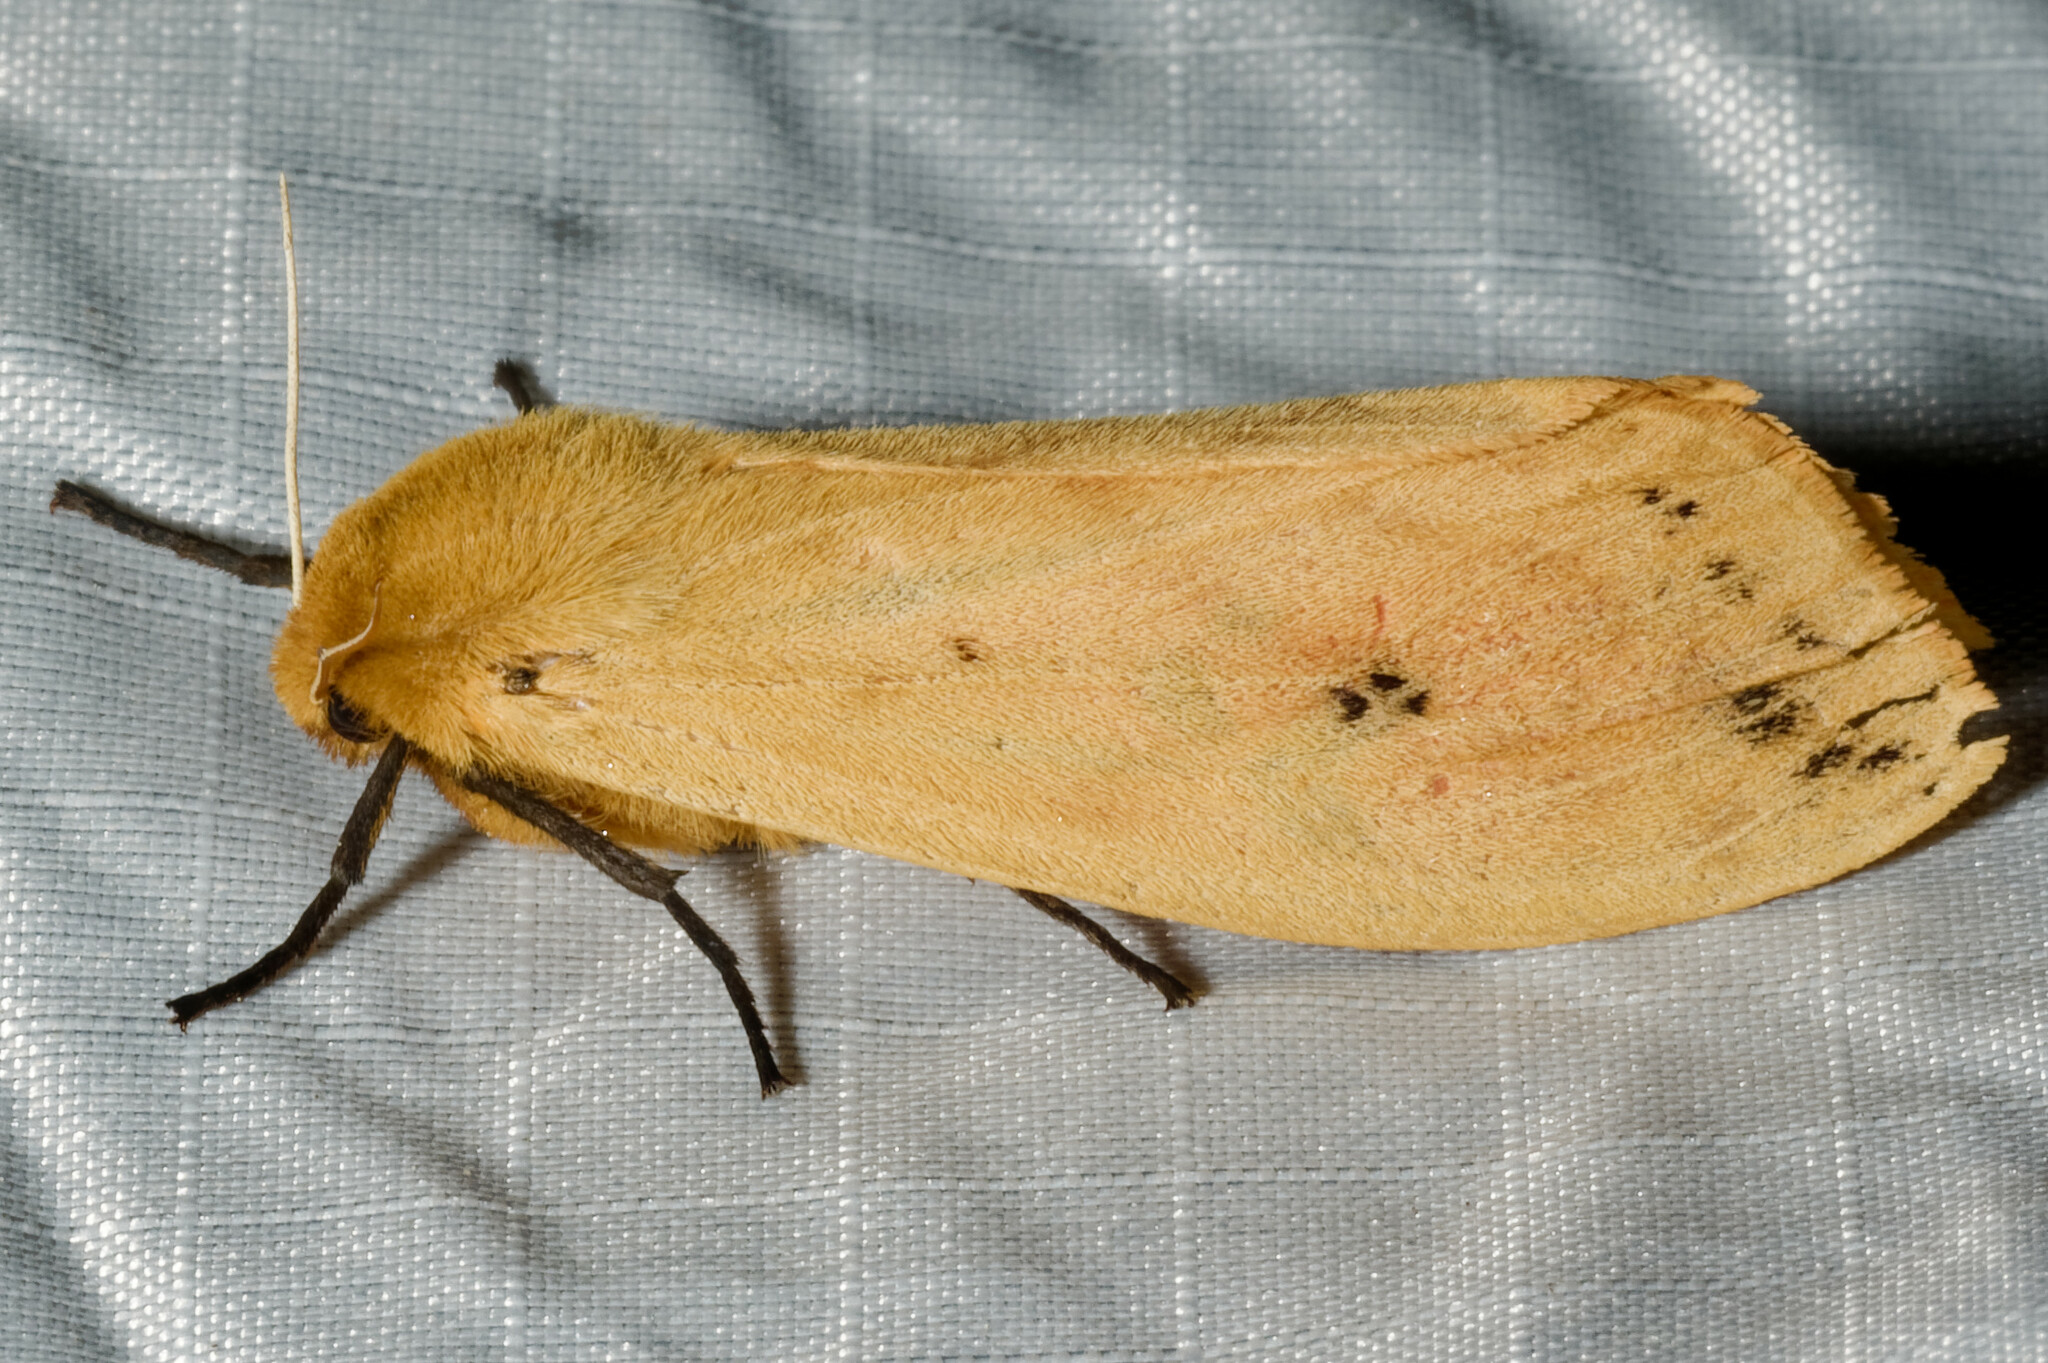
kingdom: Animalia
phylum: Arthropoda
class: Insecta
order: Lepidoptera
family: Erebidae
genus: Pyrrharctia
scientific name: Pyrrharctia isabella
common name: Isabella tiger moth
